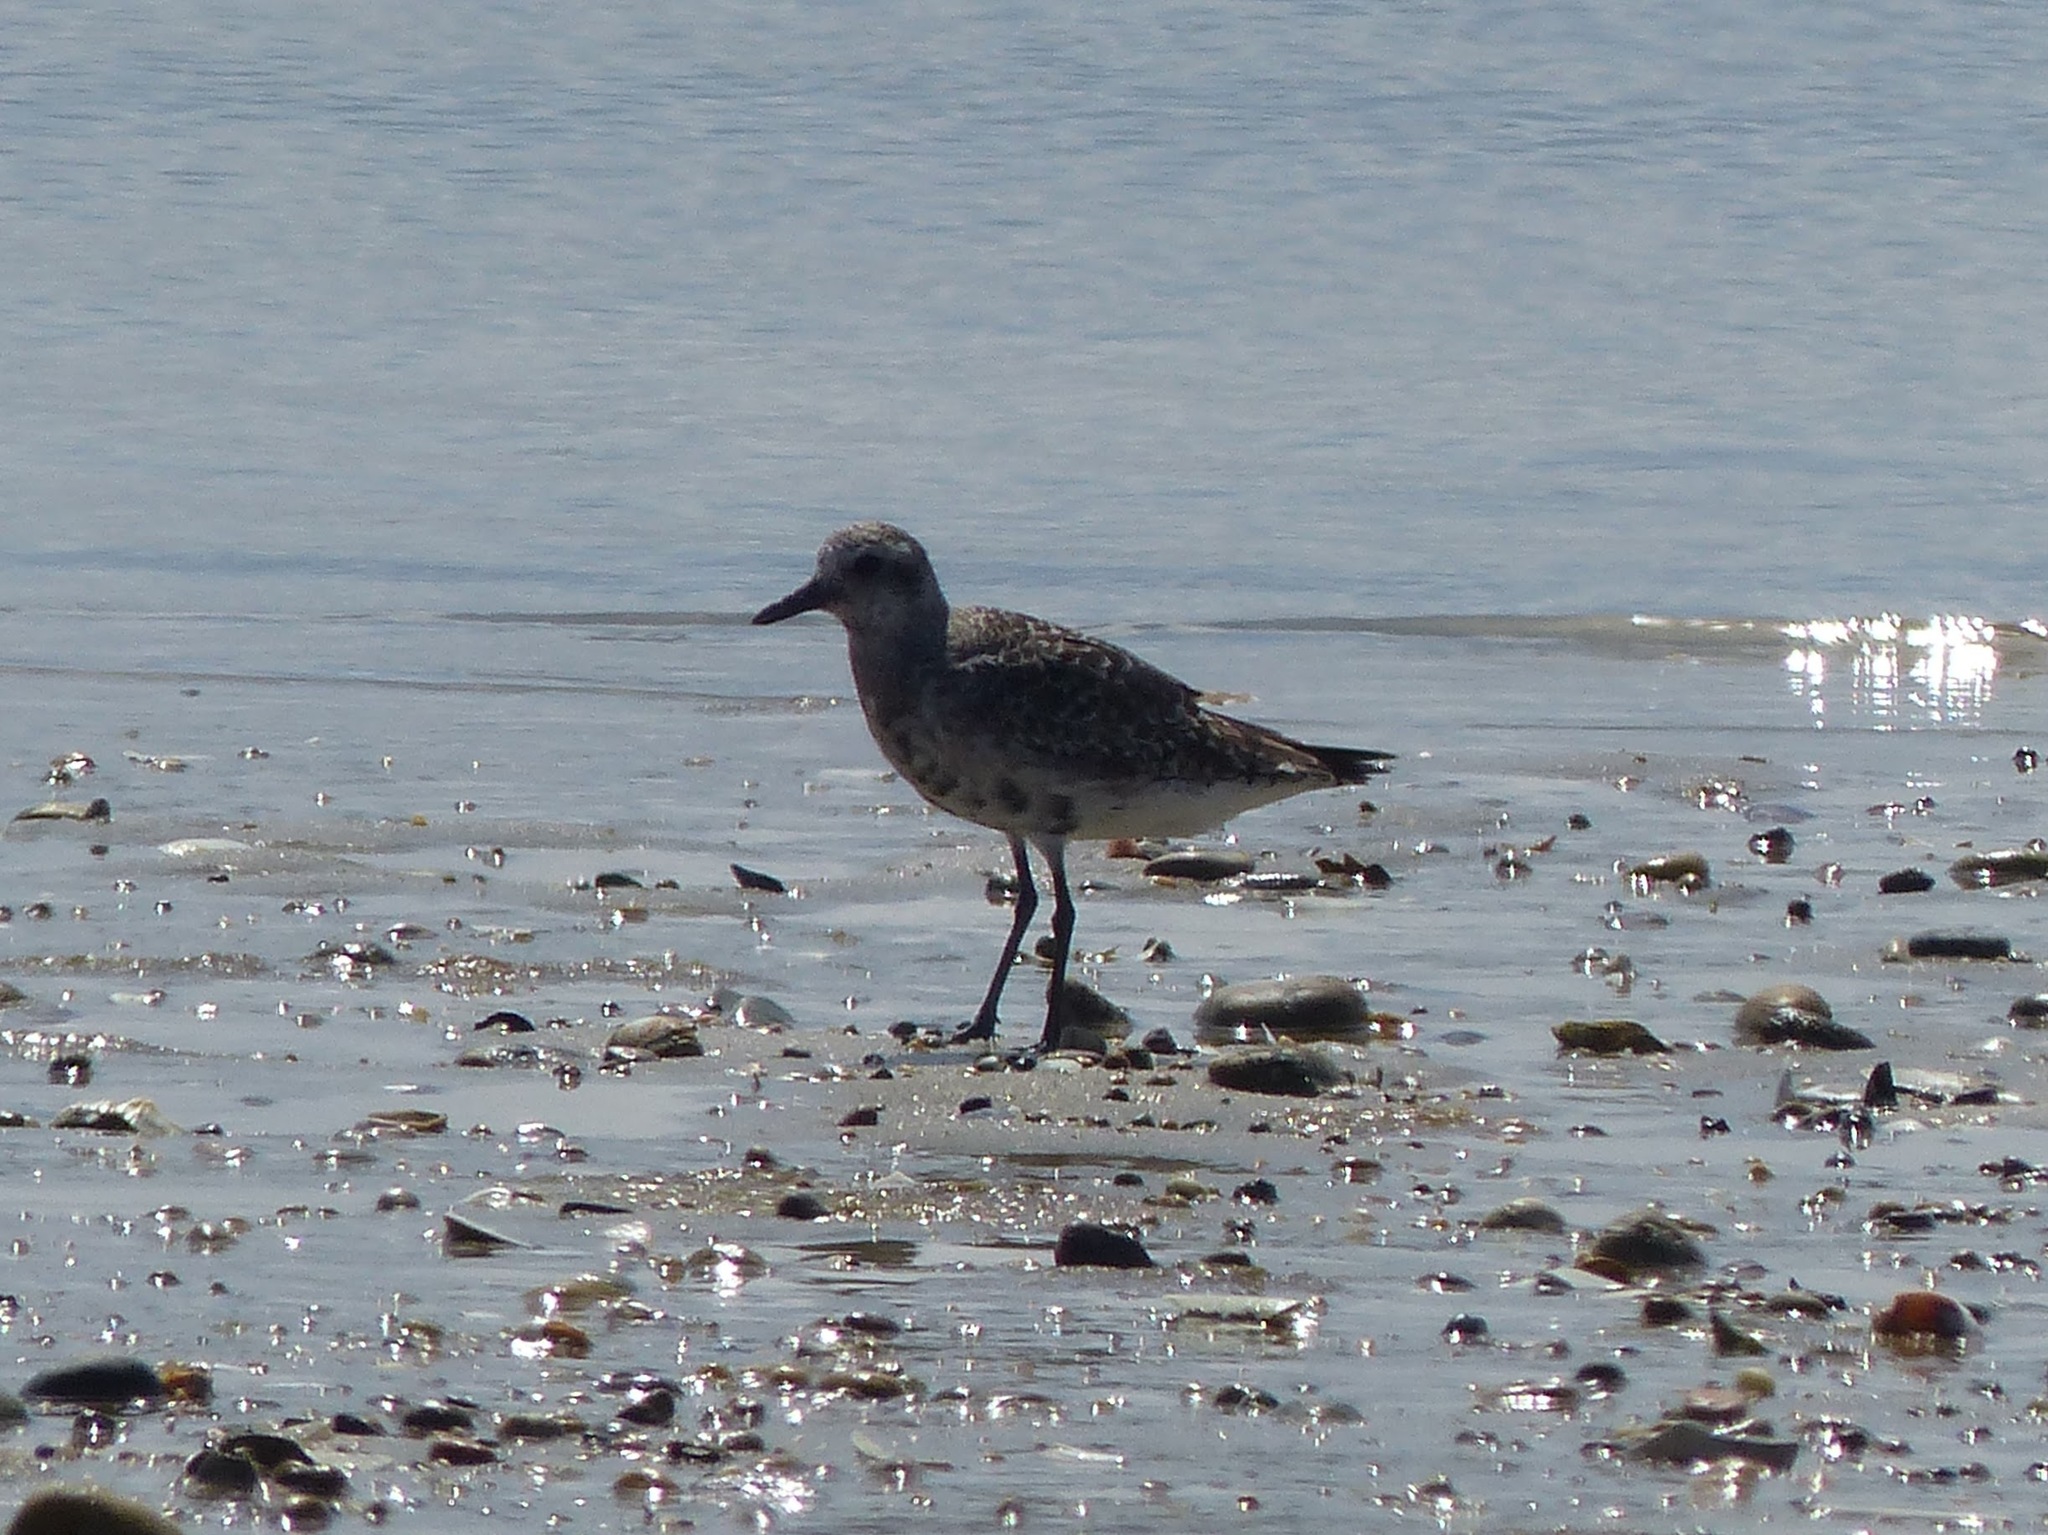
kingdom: Animalia
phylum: Chordata
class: Aves
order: Charadriiformes
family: Charadriidae
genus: Pluvialis
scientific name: Pluvialis squatarola
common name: Grey plover
